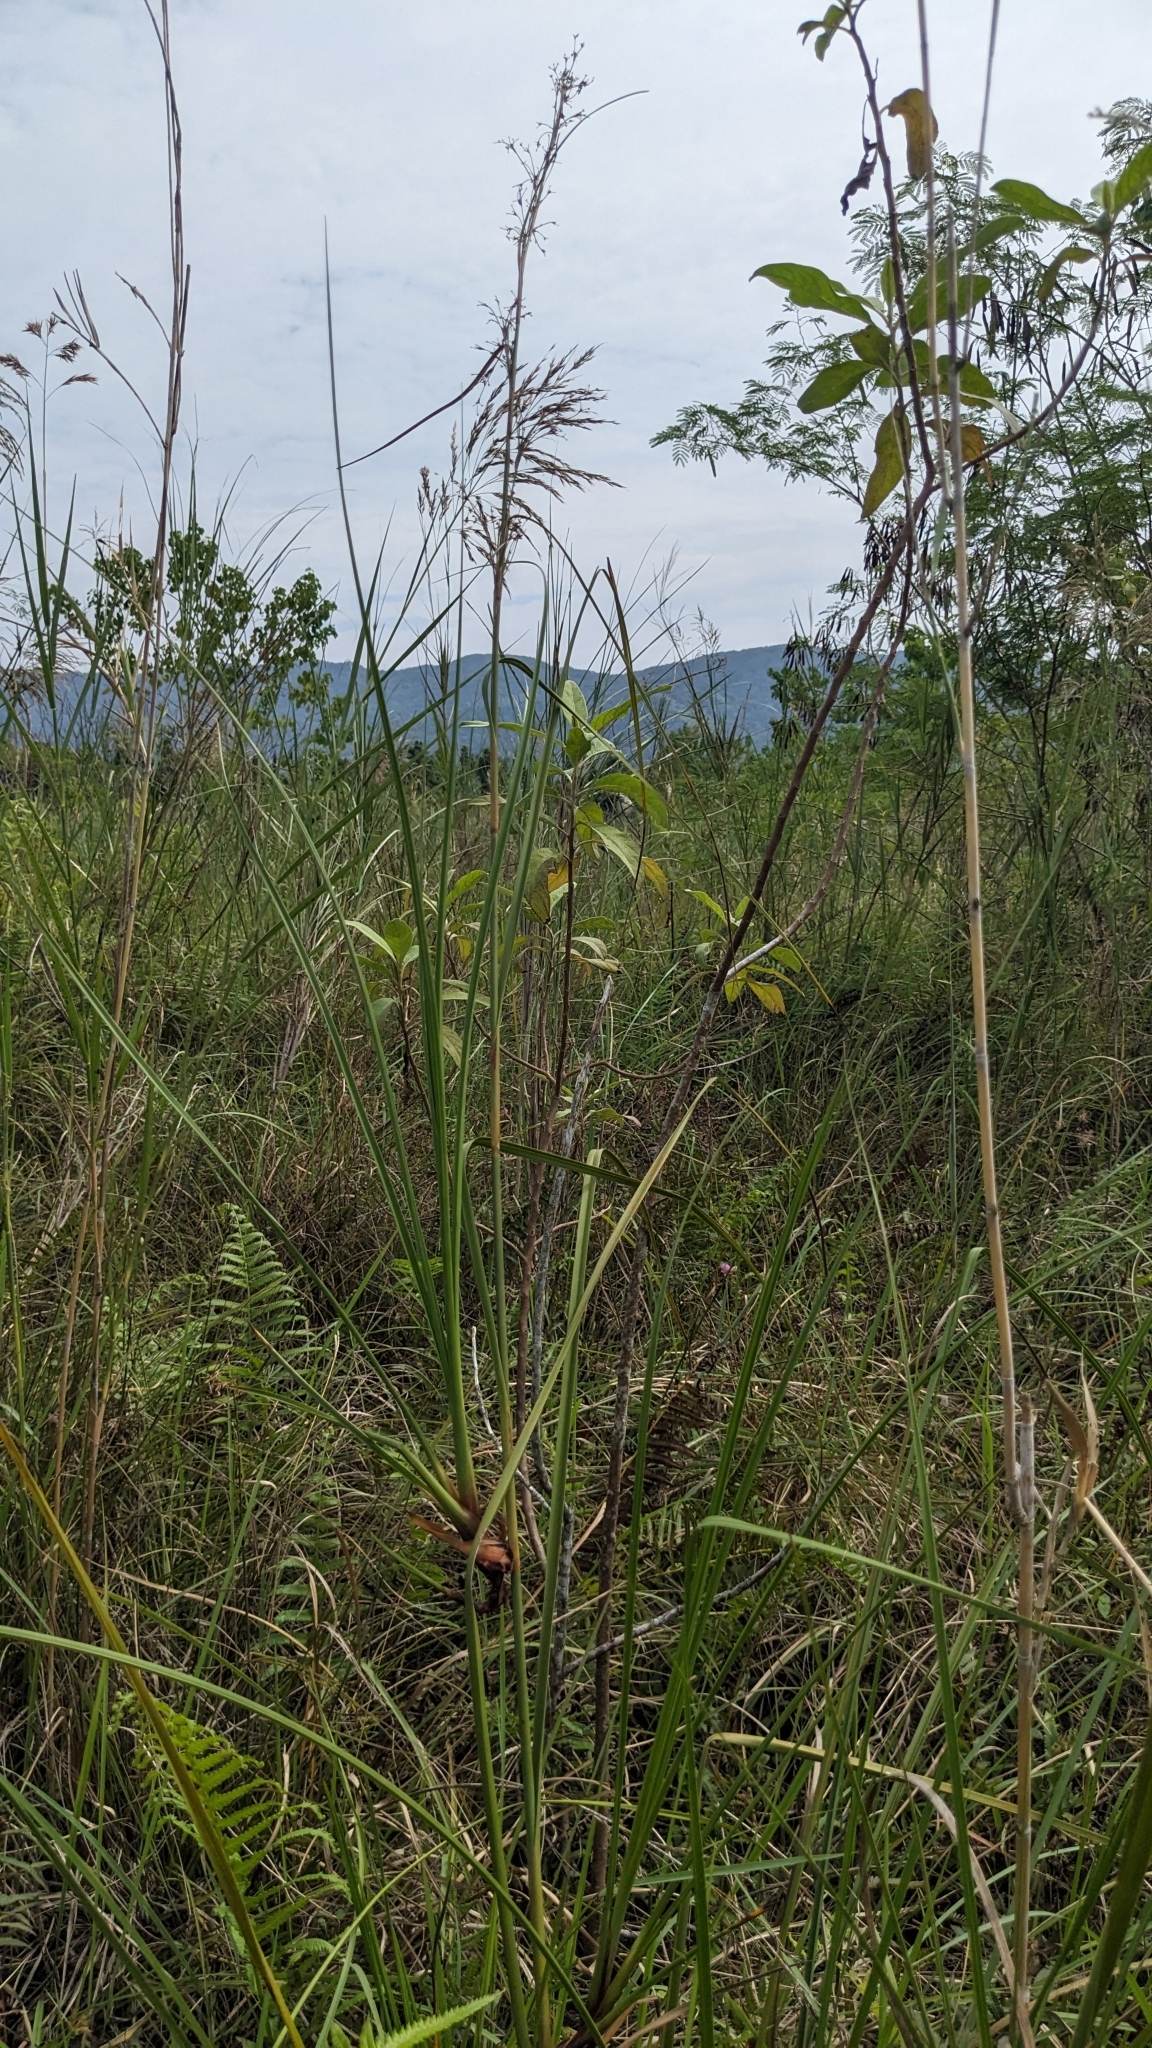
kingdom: Plantae
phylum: Tracheophyta
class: Liliopsida
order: Poales
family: Cyperaceae
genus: Cladium
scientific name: Cladium mariscus
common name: Great fen-sedge
